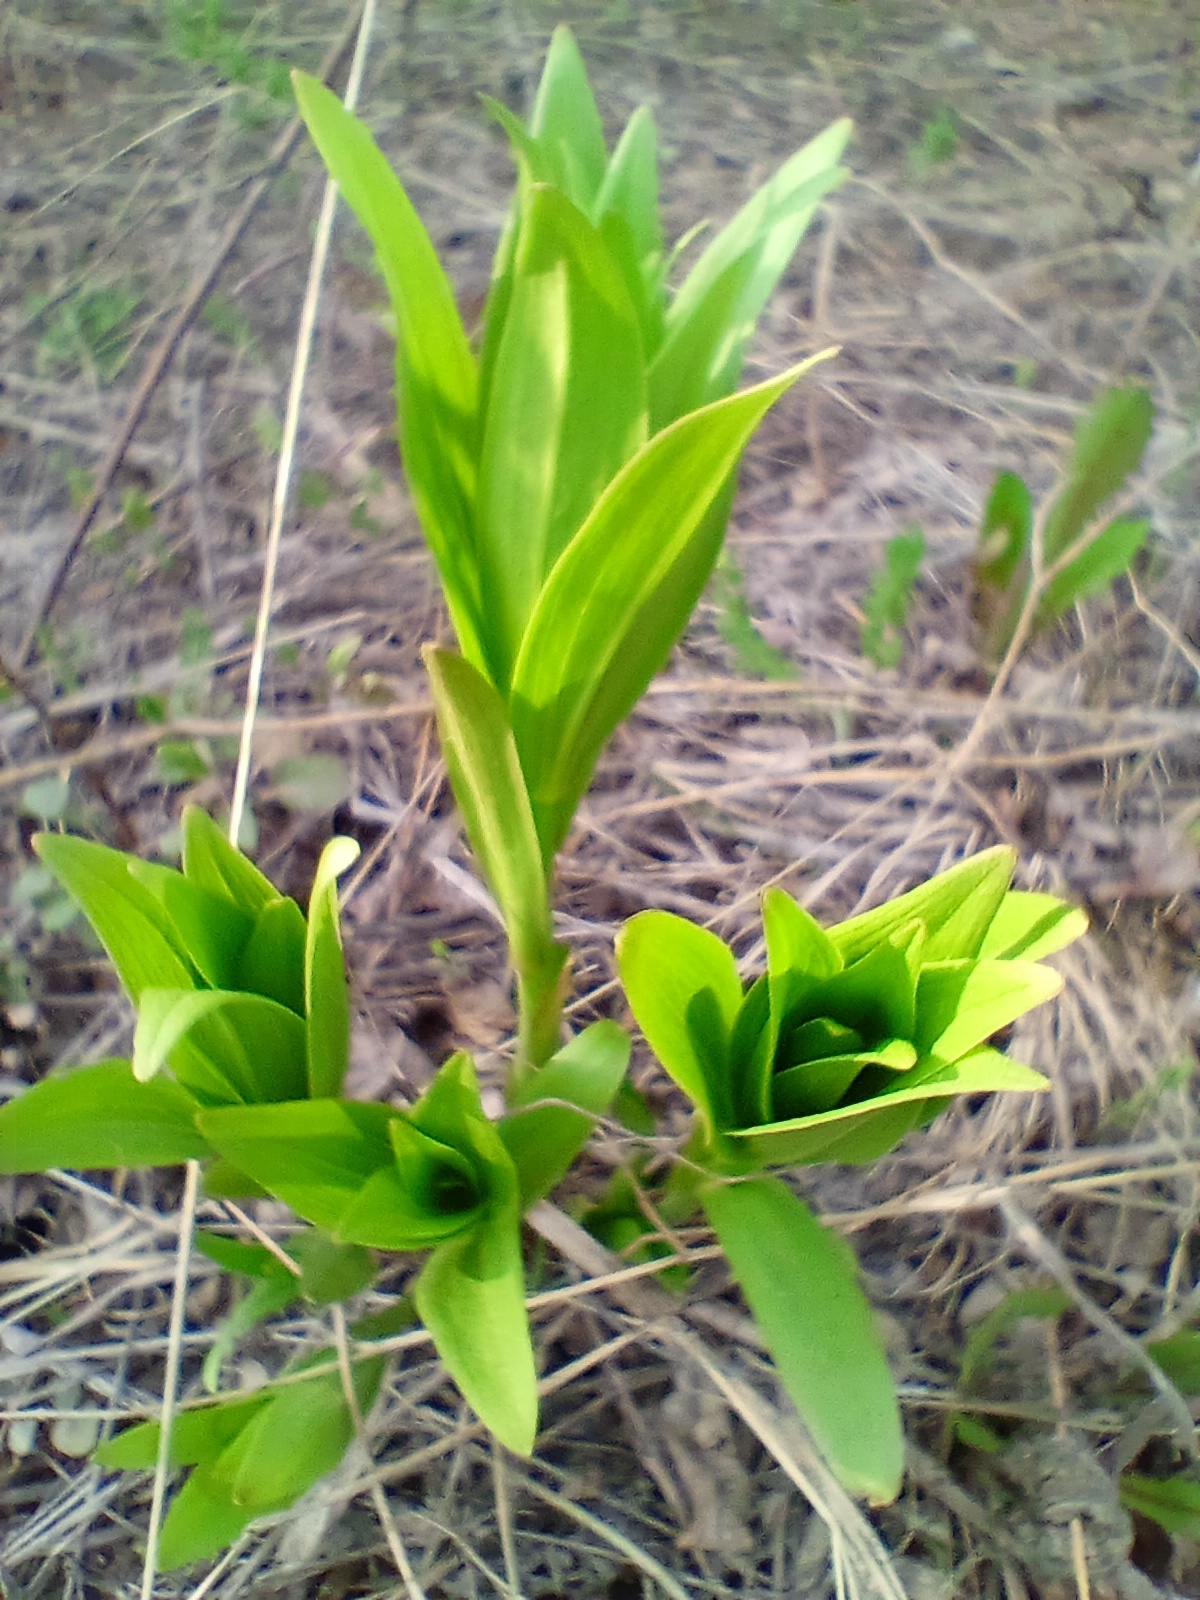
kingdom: Plantae
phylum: Tracheophyta
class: Liliopsida
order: Liliales
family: Liliaceae
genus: Lilium
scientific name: Lilium martagon
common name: Martagon lily
